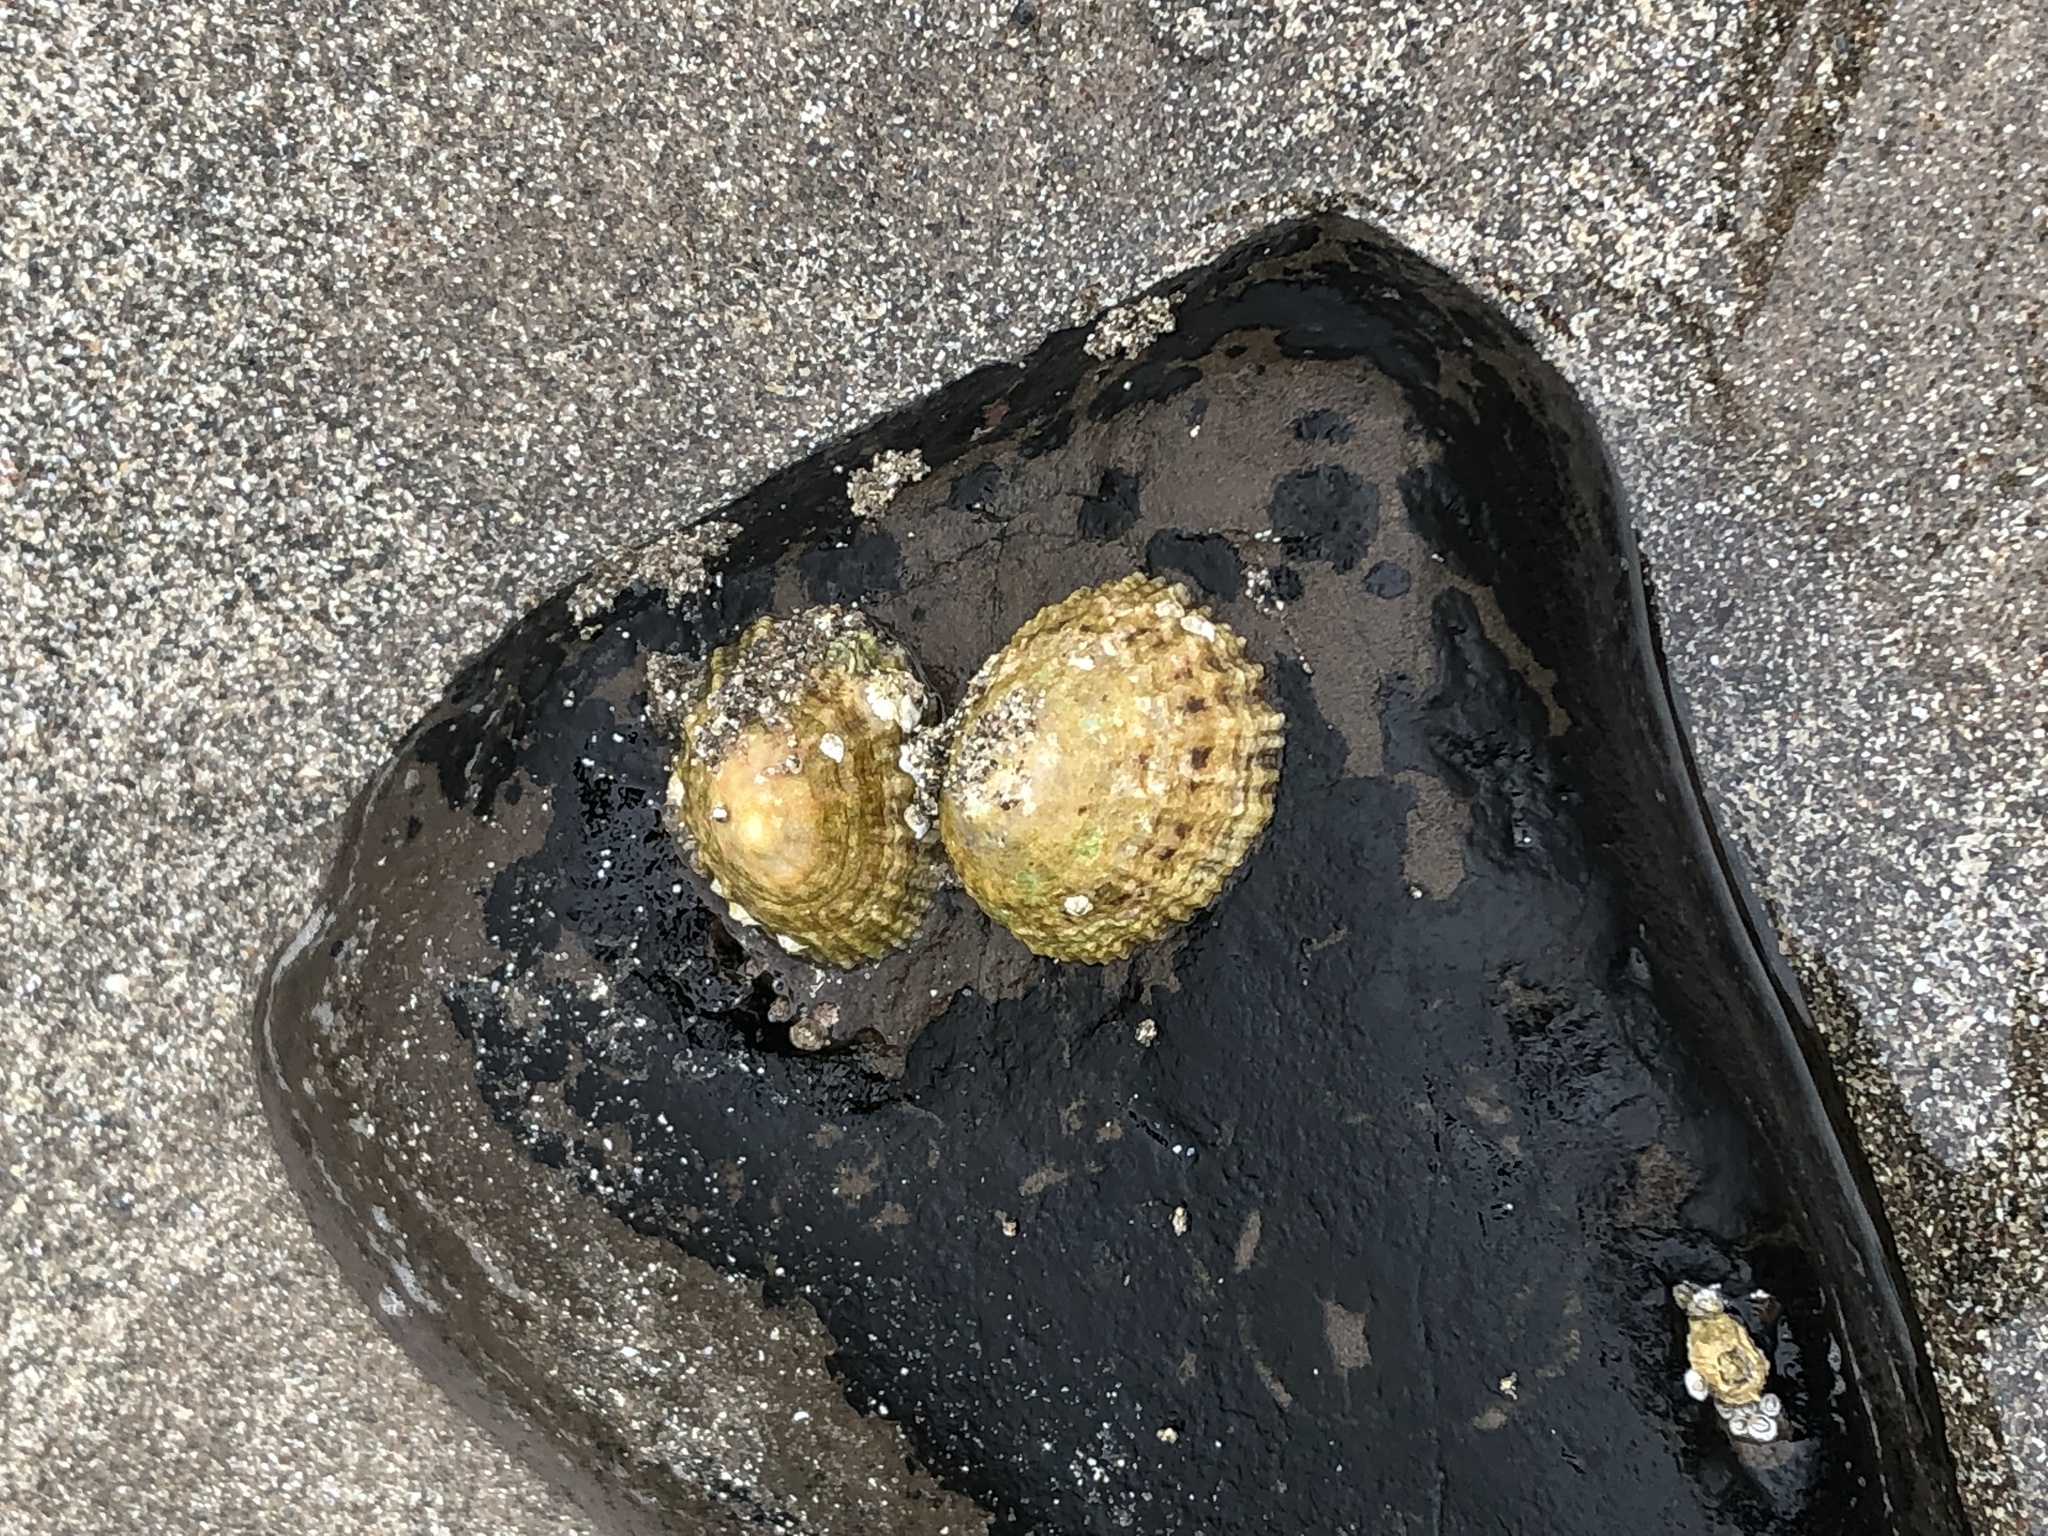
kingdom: Animalia
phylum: Mollusca
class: Gastropoda
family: Patellidae
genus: Patella
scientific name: Patella vulgata
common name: Common limpet
